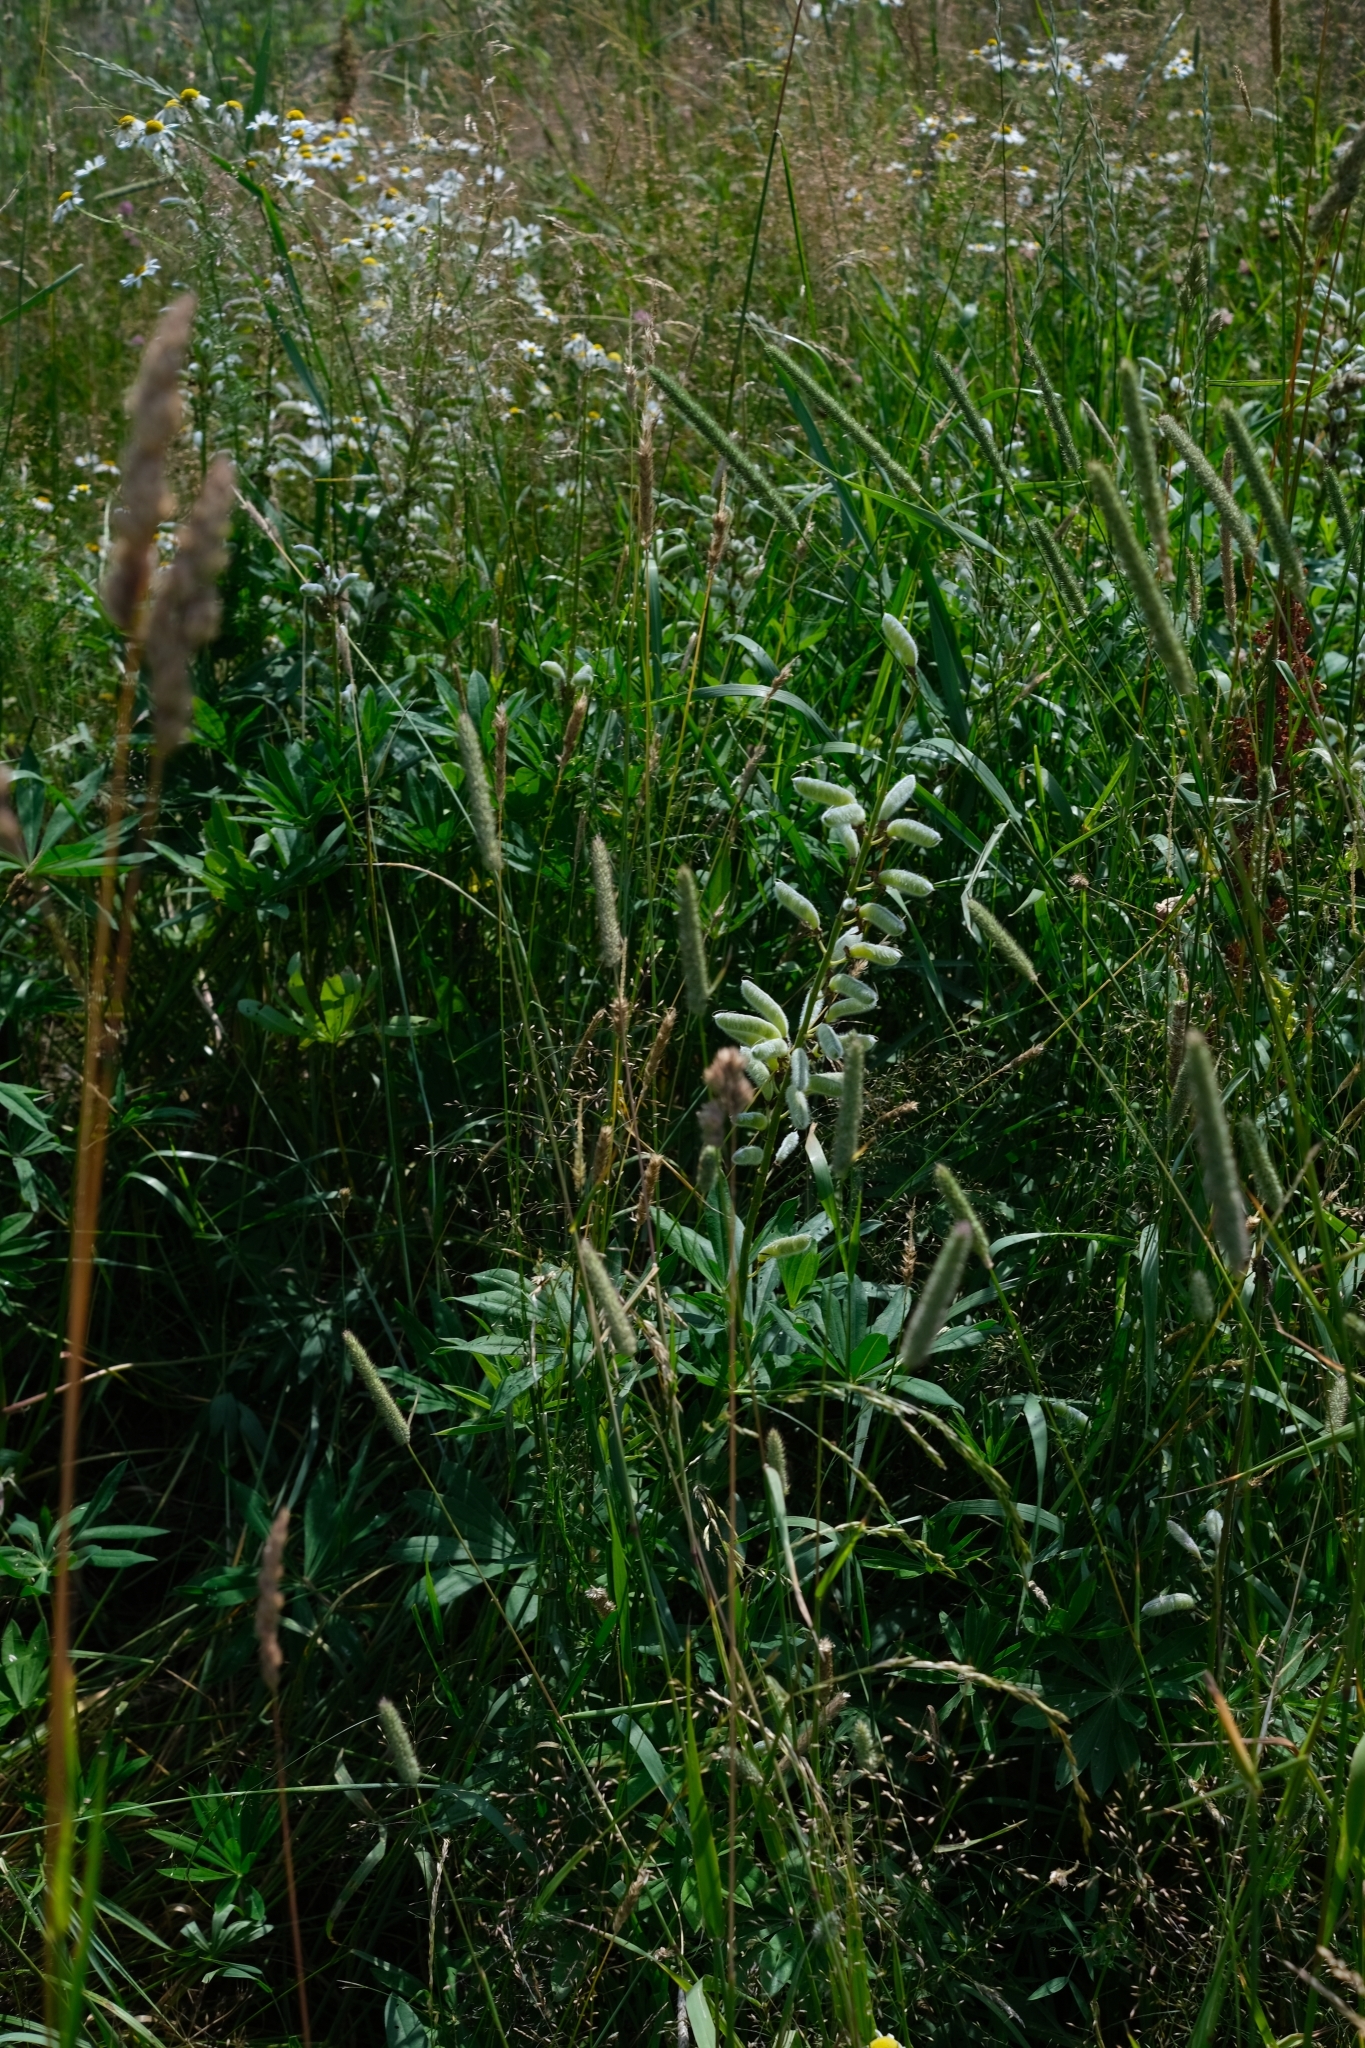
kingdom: Plantae
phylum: Tracheophyta
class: Magnoliopsida
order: Fabales
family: Fabaceae
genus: Lupinus
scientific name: Lupinus polyphyllus
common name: Garden lupin
